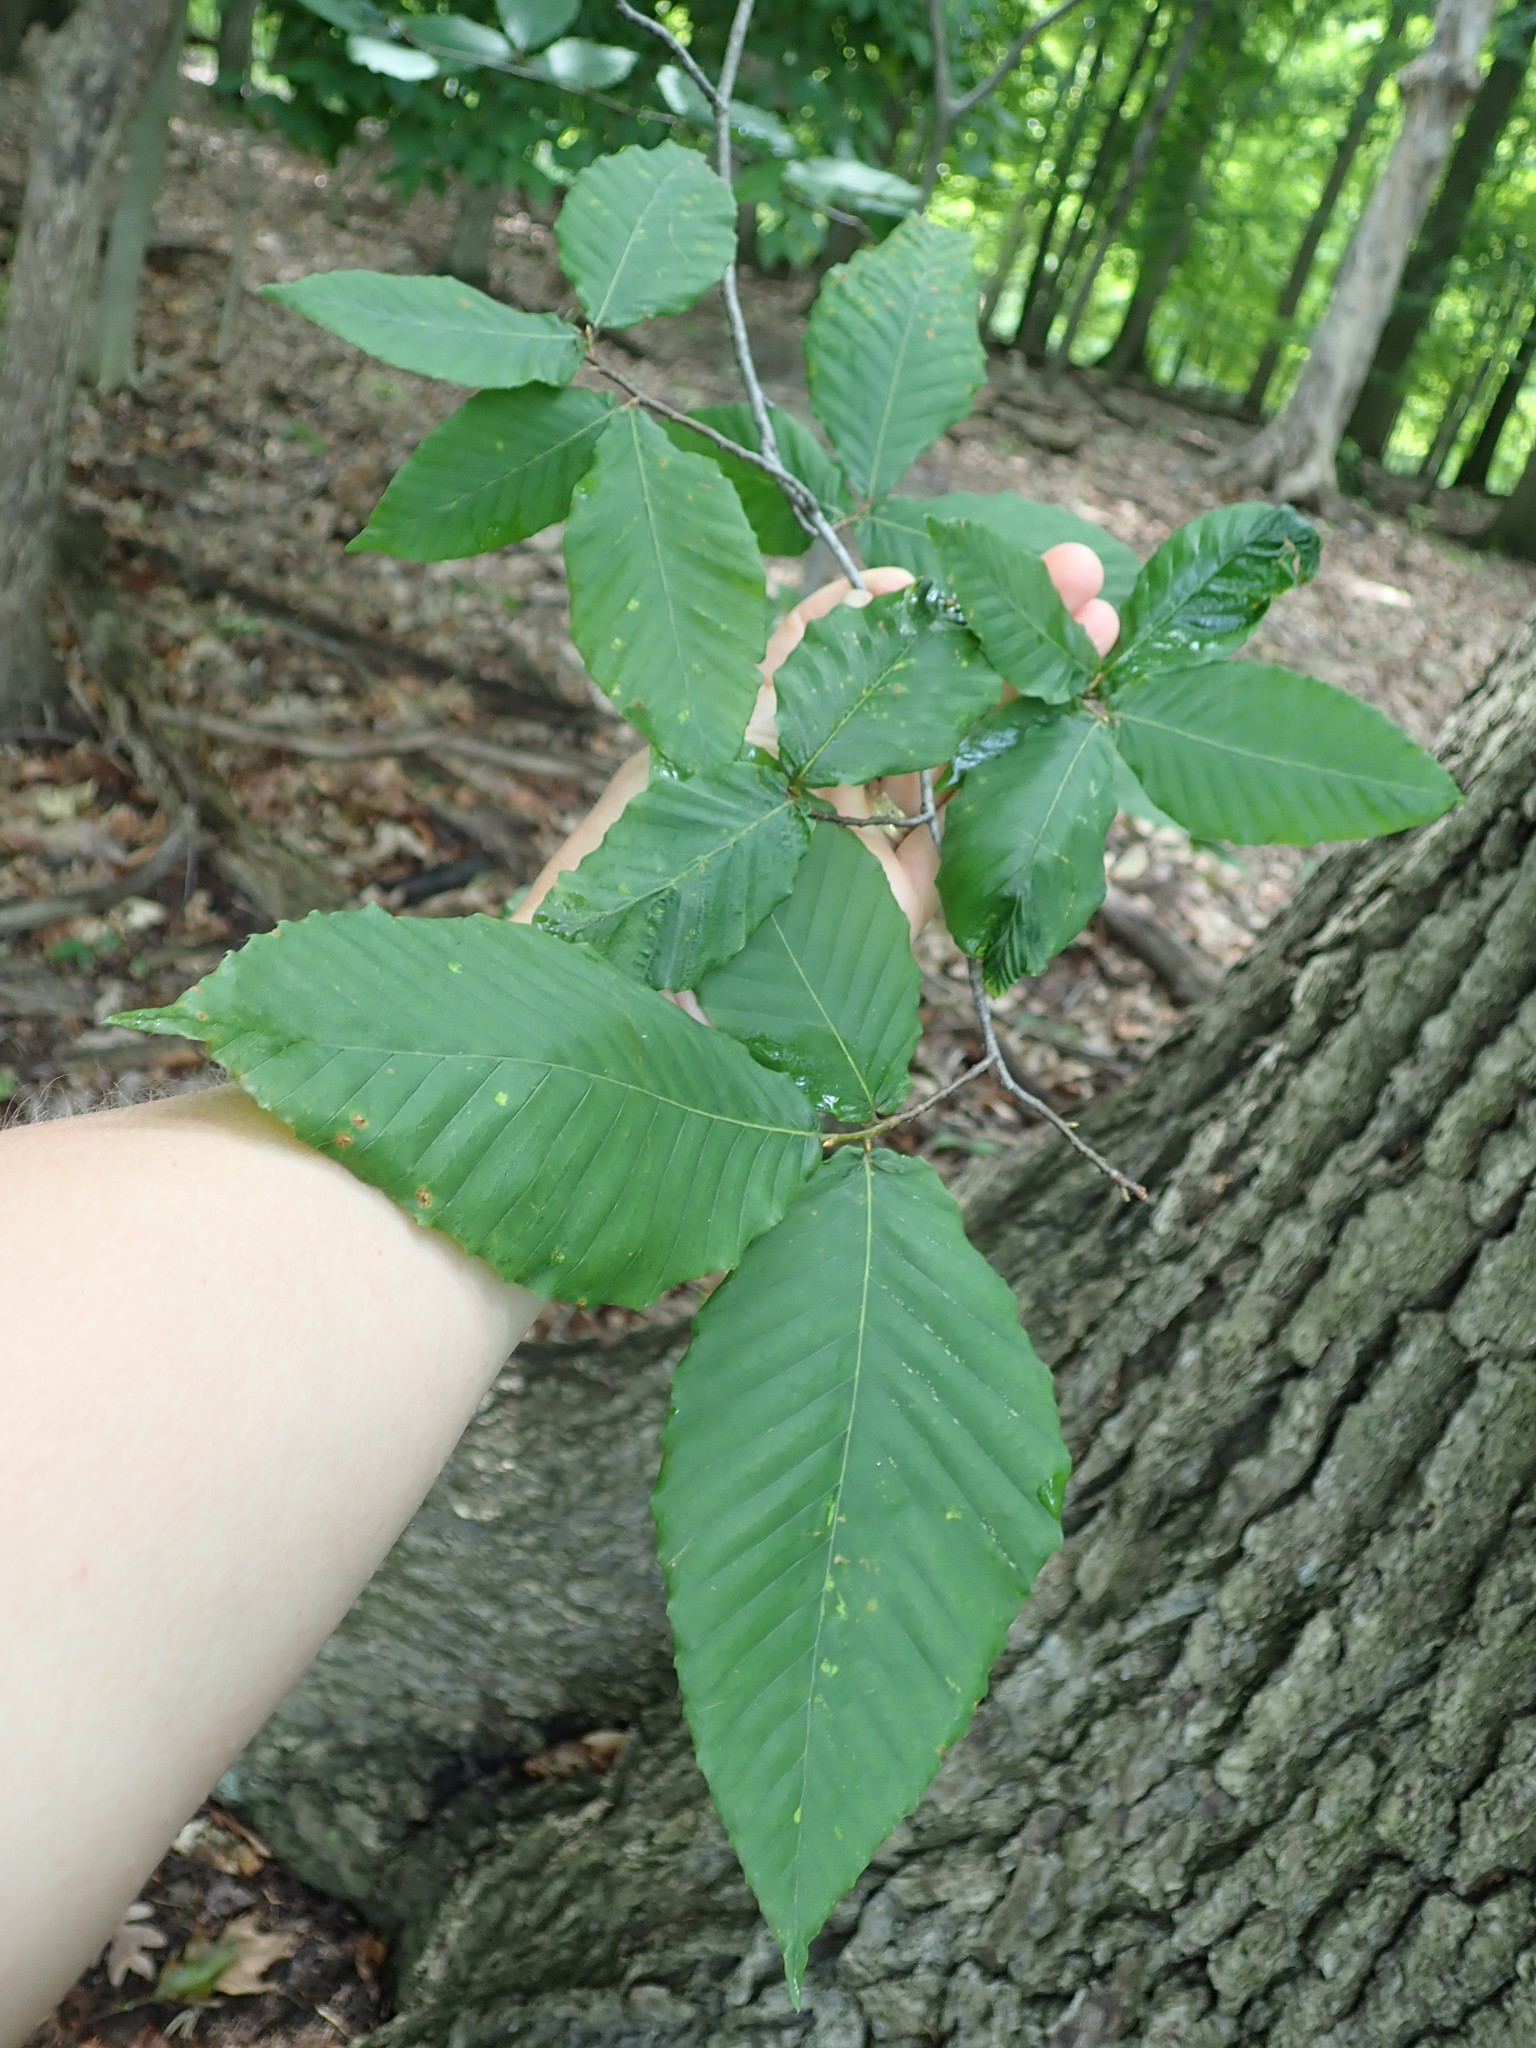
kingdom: Plantae
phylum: Tracheophyta
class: Magnoliopsida
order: Fagales
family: Fagaceae
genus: Fagus
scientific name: Fagus grandifolia
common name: American beech
